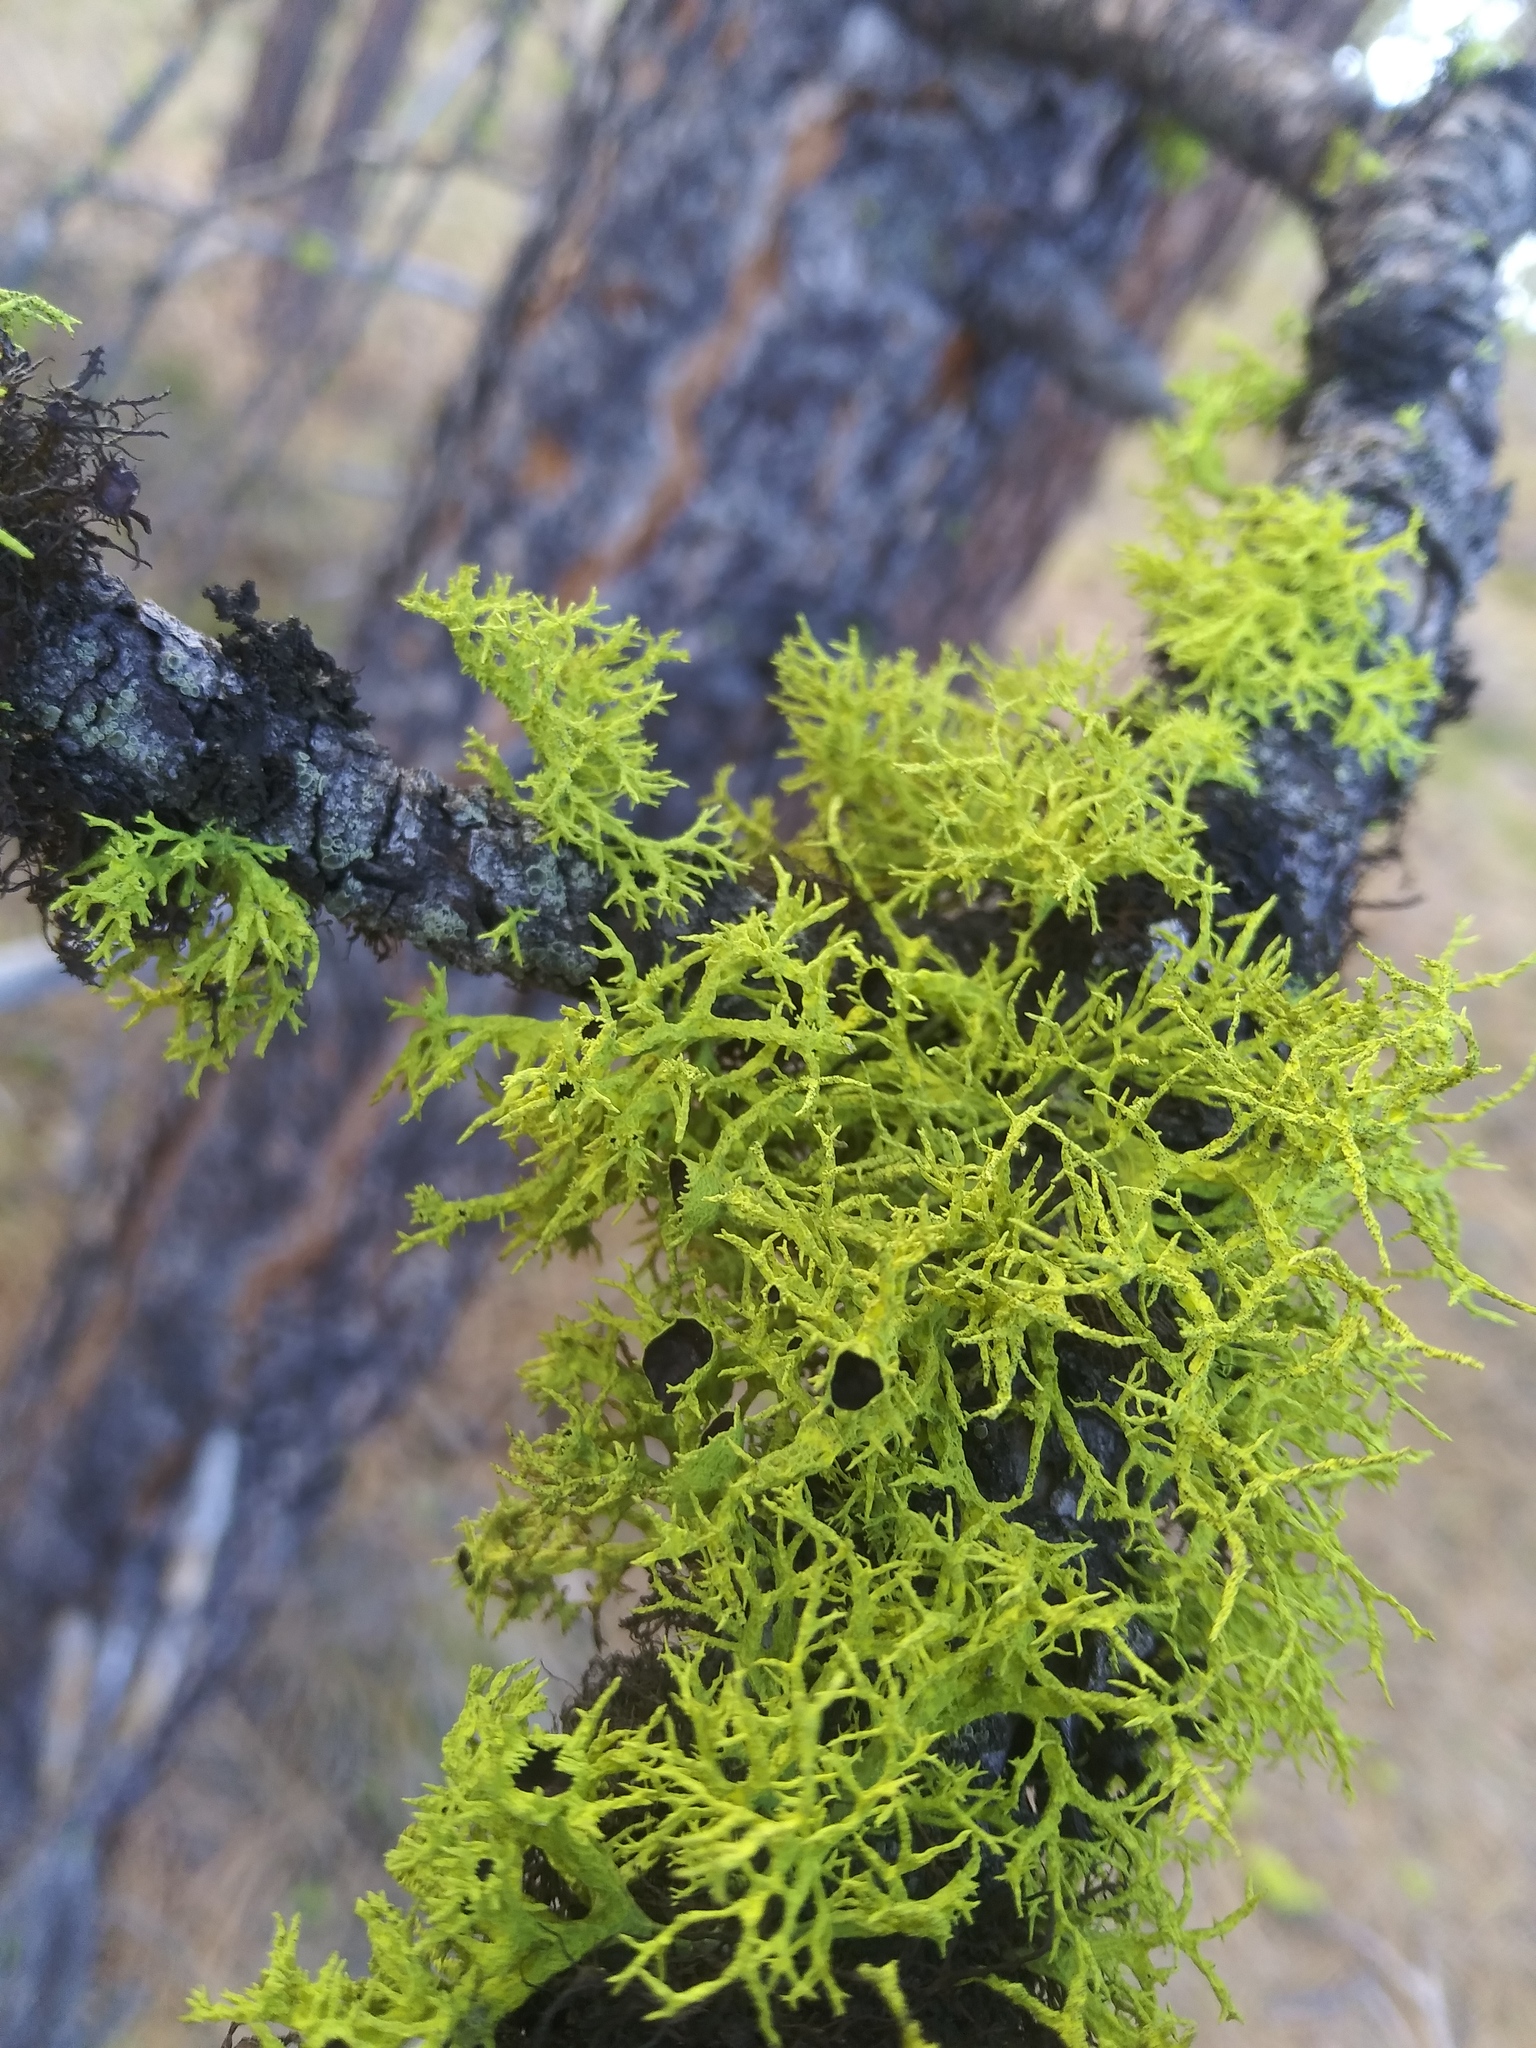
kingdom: Fungi
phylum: Ascomycota
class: Lecanoromycetes
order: Lecanorales
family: Parmeliaceae
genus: Letharia
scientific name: Letharia columbiana
